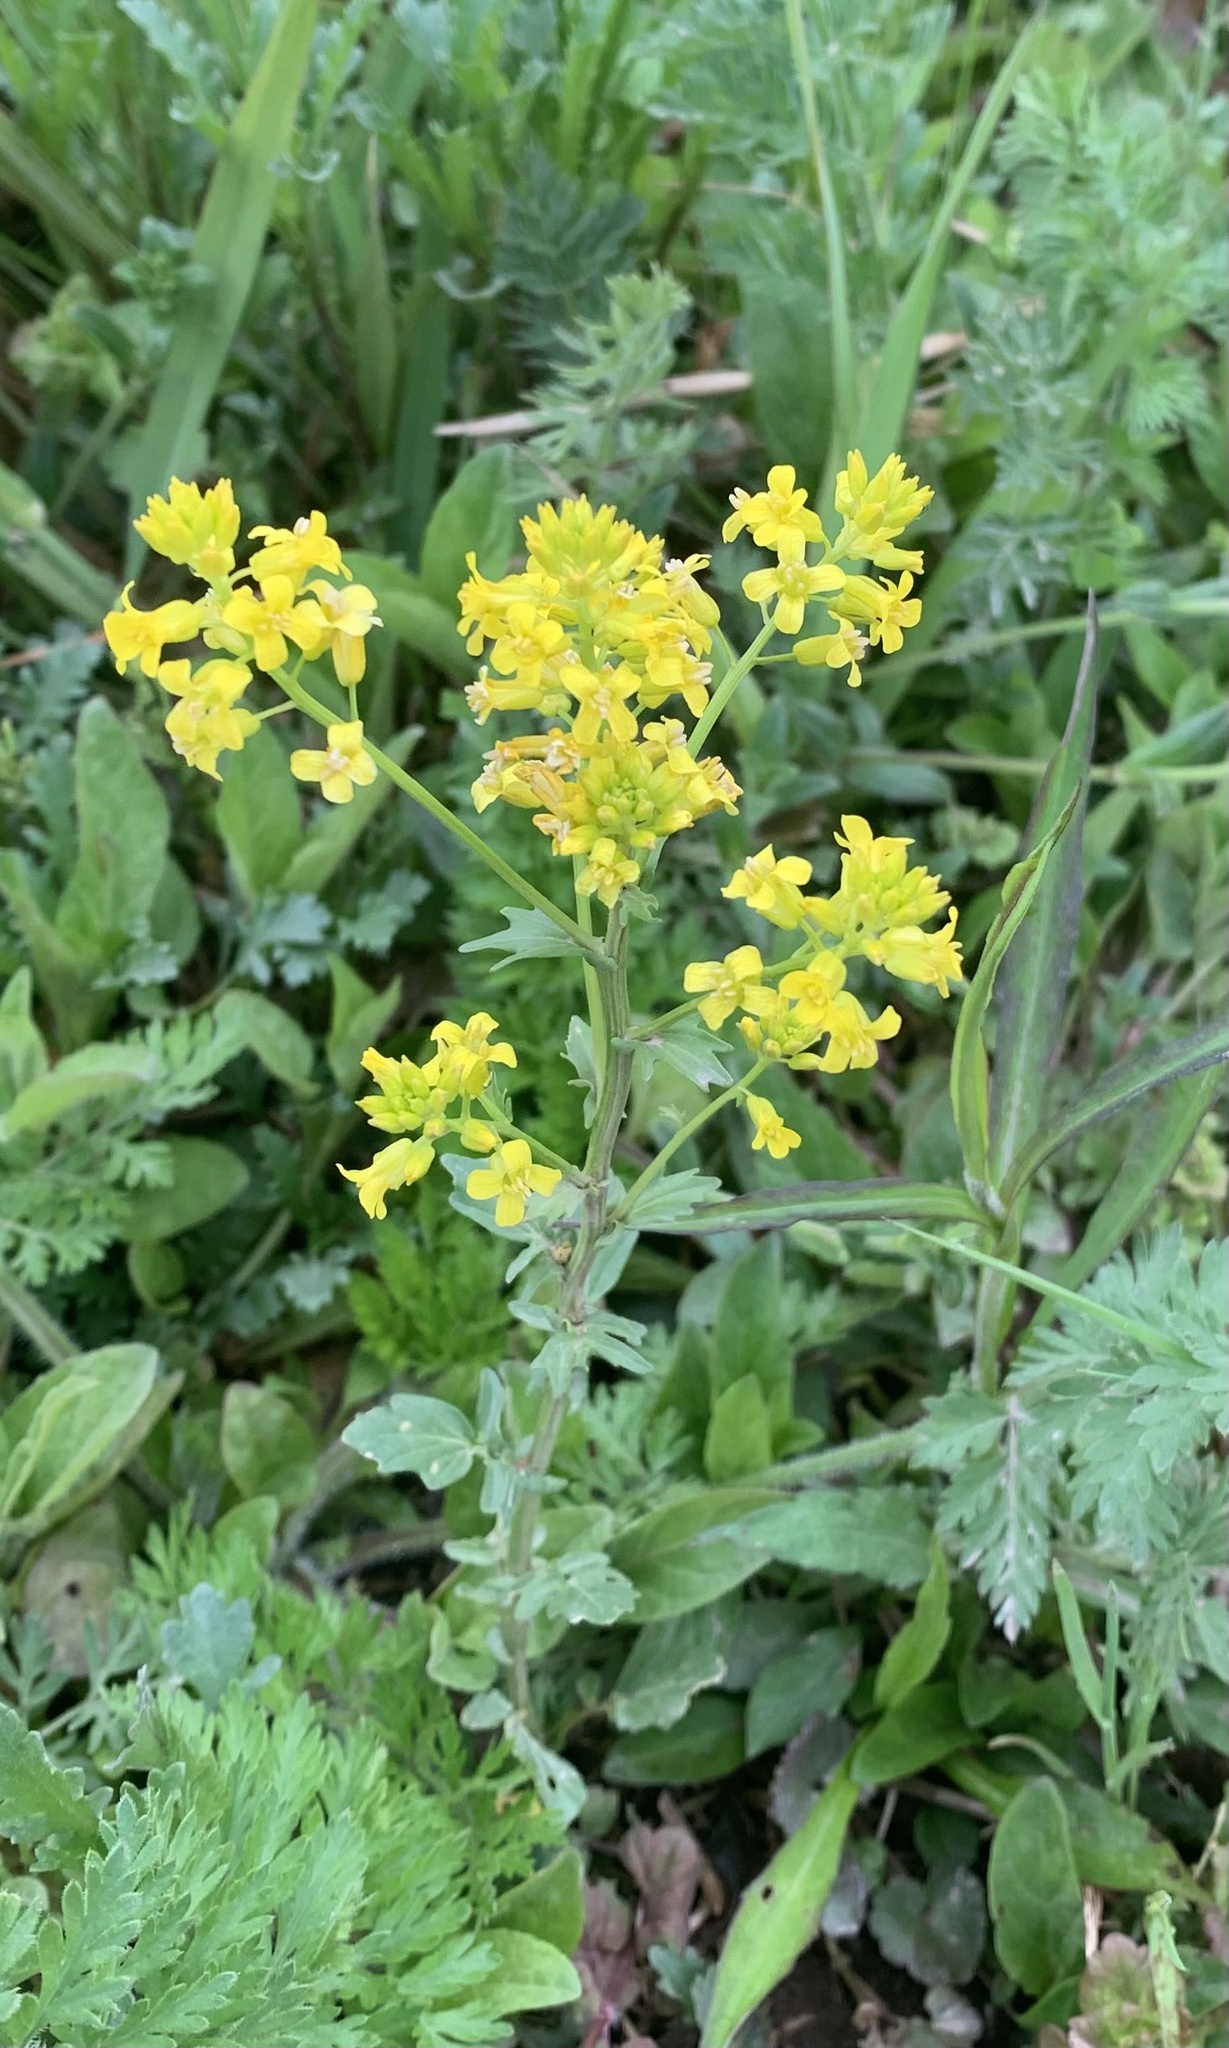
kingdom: Plantae
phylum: Tracheophyta
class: Magnoliopsida
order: Brassicales
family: Brassicaceae
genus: Barbarea
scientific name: Barbarea vulgaris
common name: Cressy-greens
